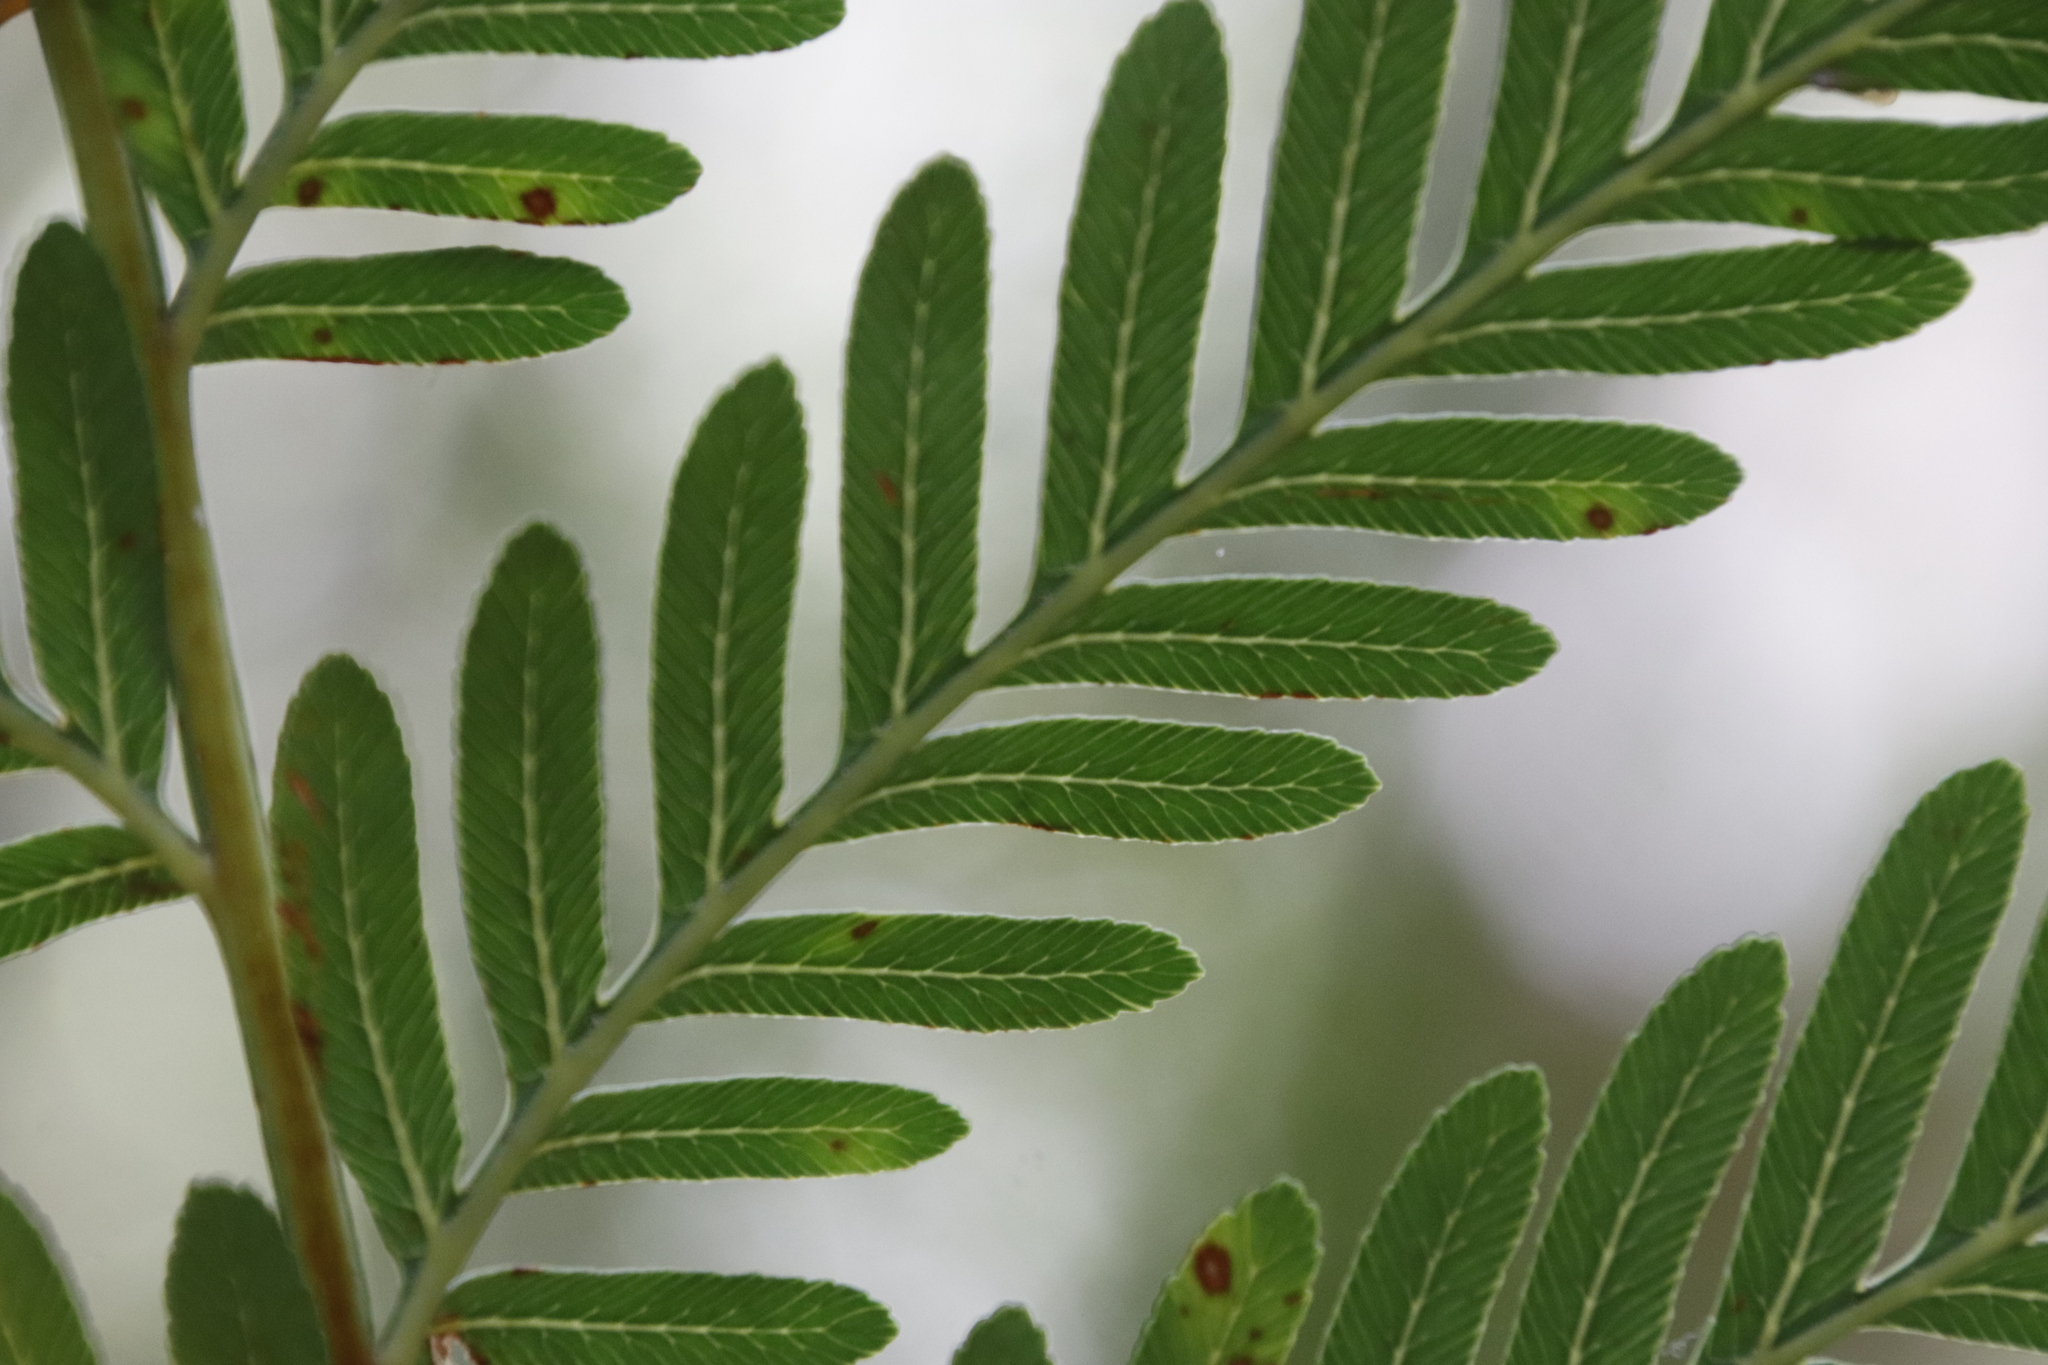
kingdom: Plantae
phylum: Tracheophyta
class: Polypodiopsida
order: Osmundales
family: Osmundaceae
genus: Todea
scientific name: Todea barbara
